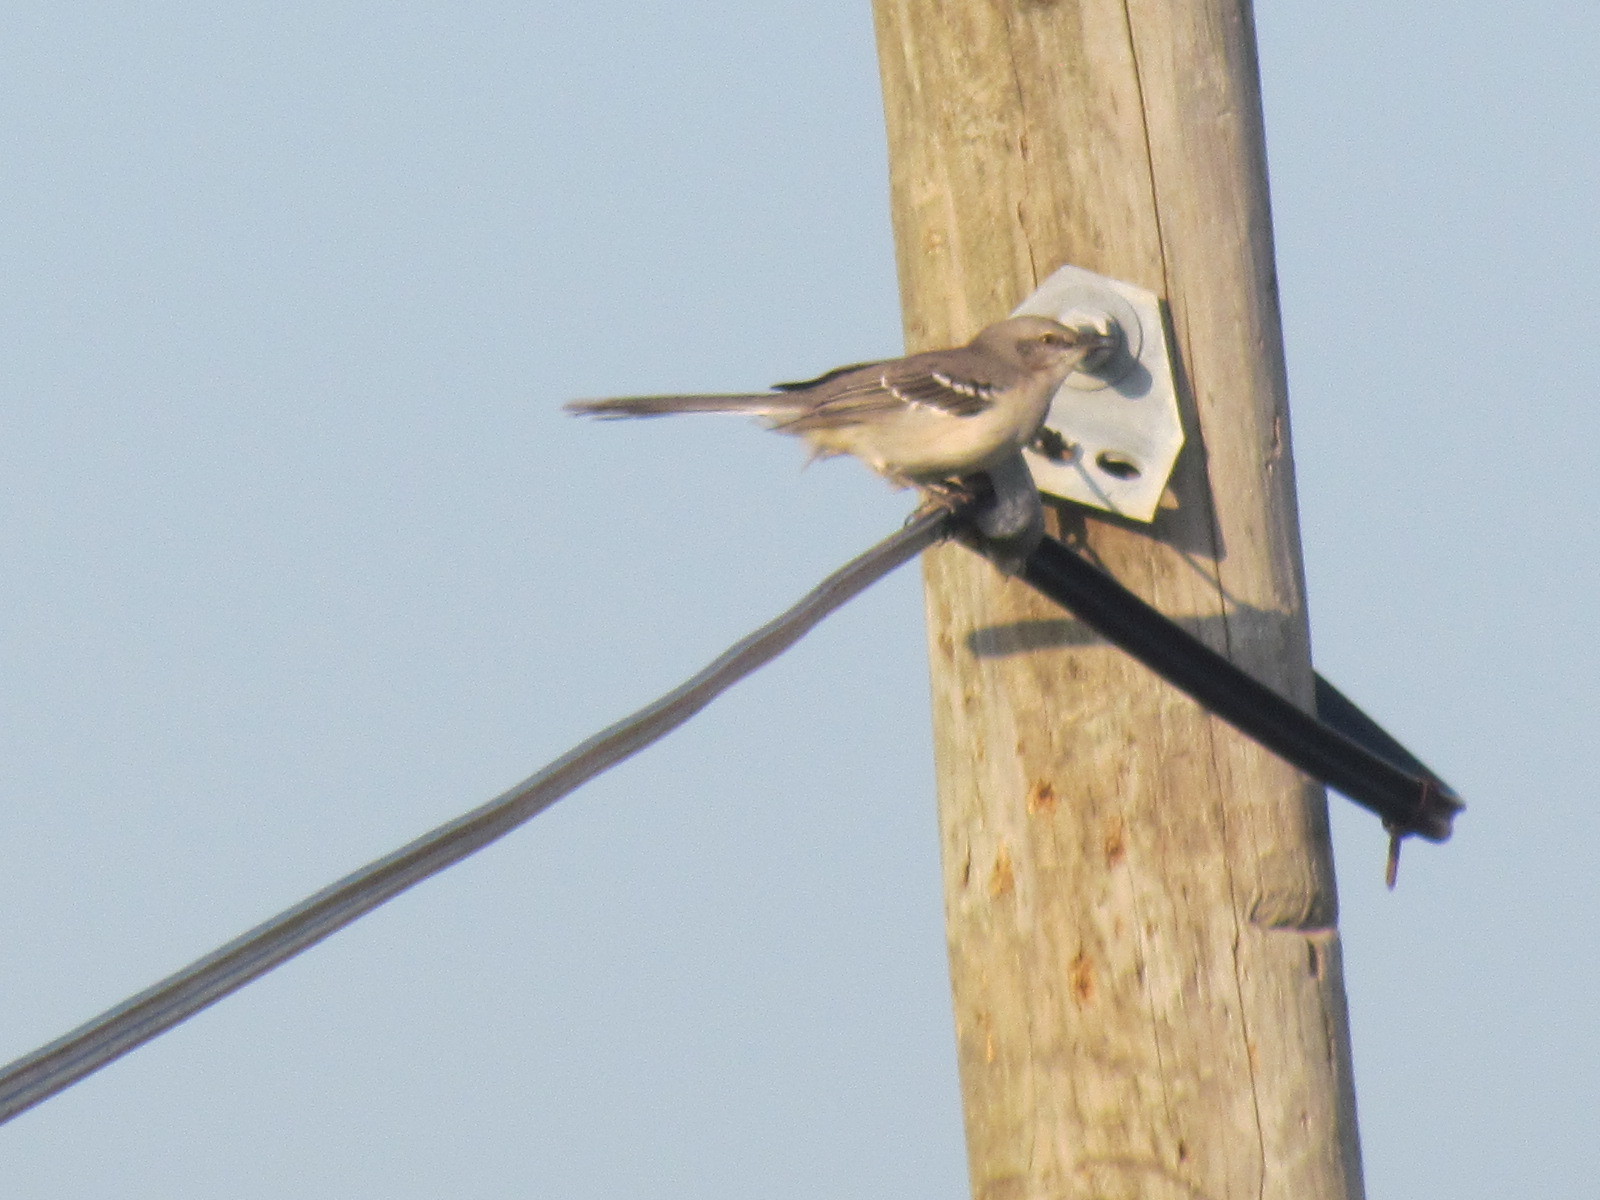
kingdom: Animalia
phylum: Chordata
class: Aves
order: Passeriformes
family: Mimidae
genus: Mimus
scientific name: Mimus gilvus
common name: Tropical mockingbird
